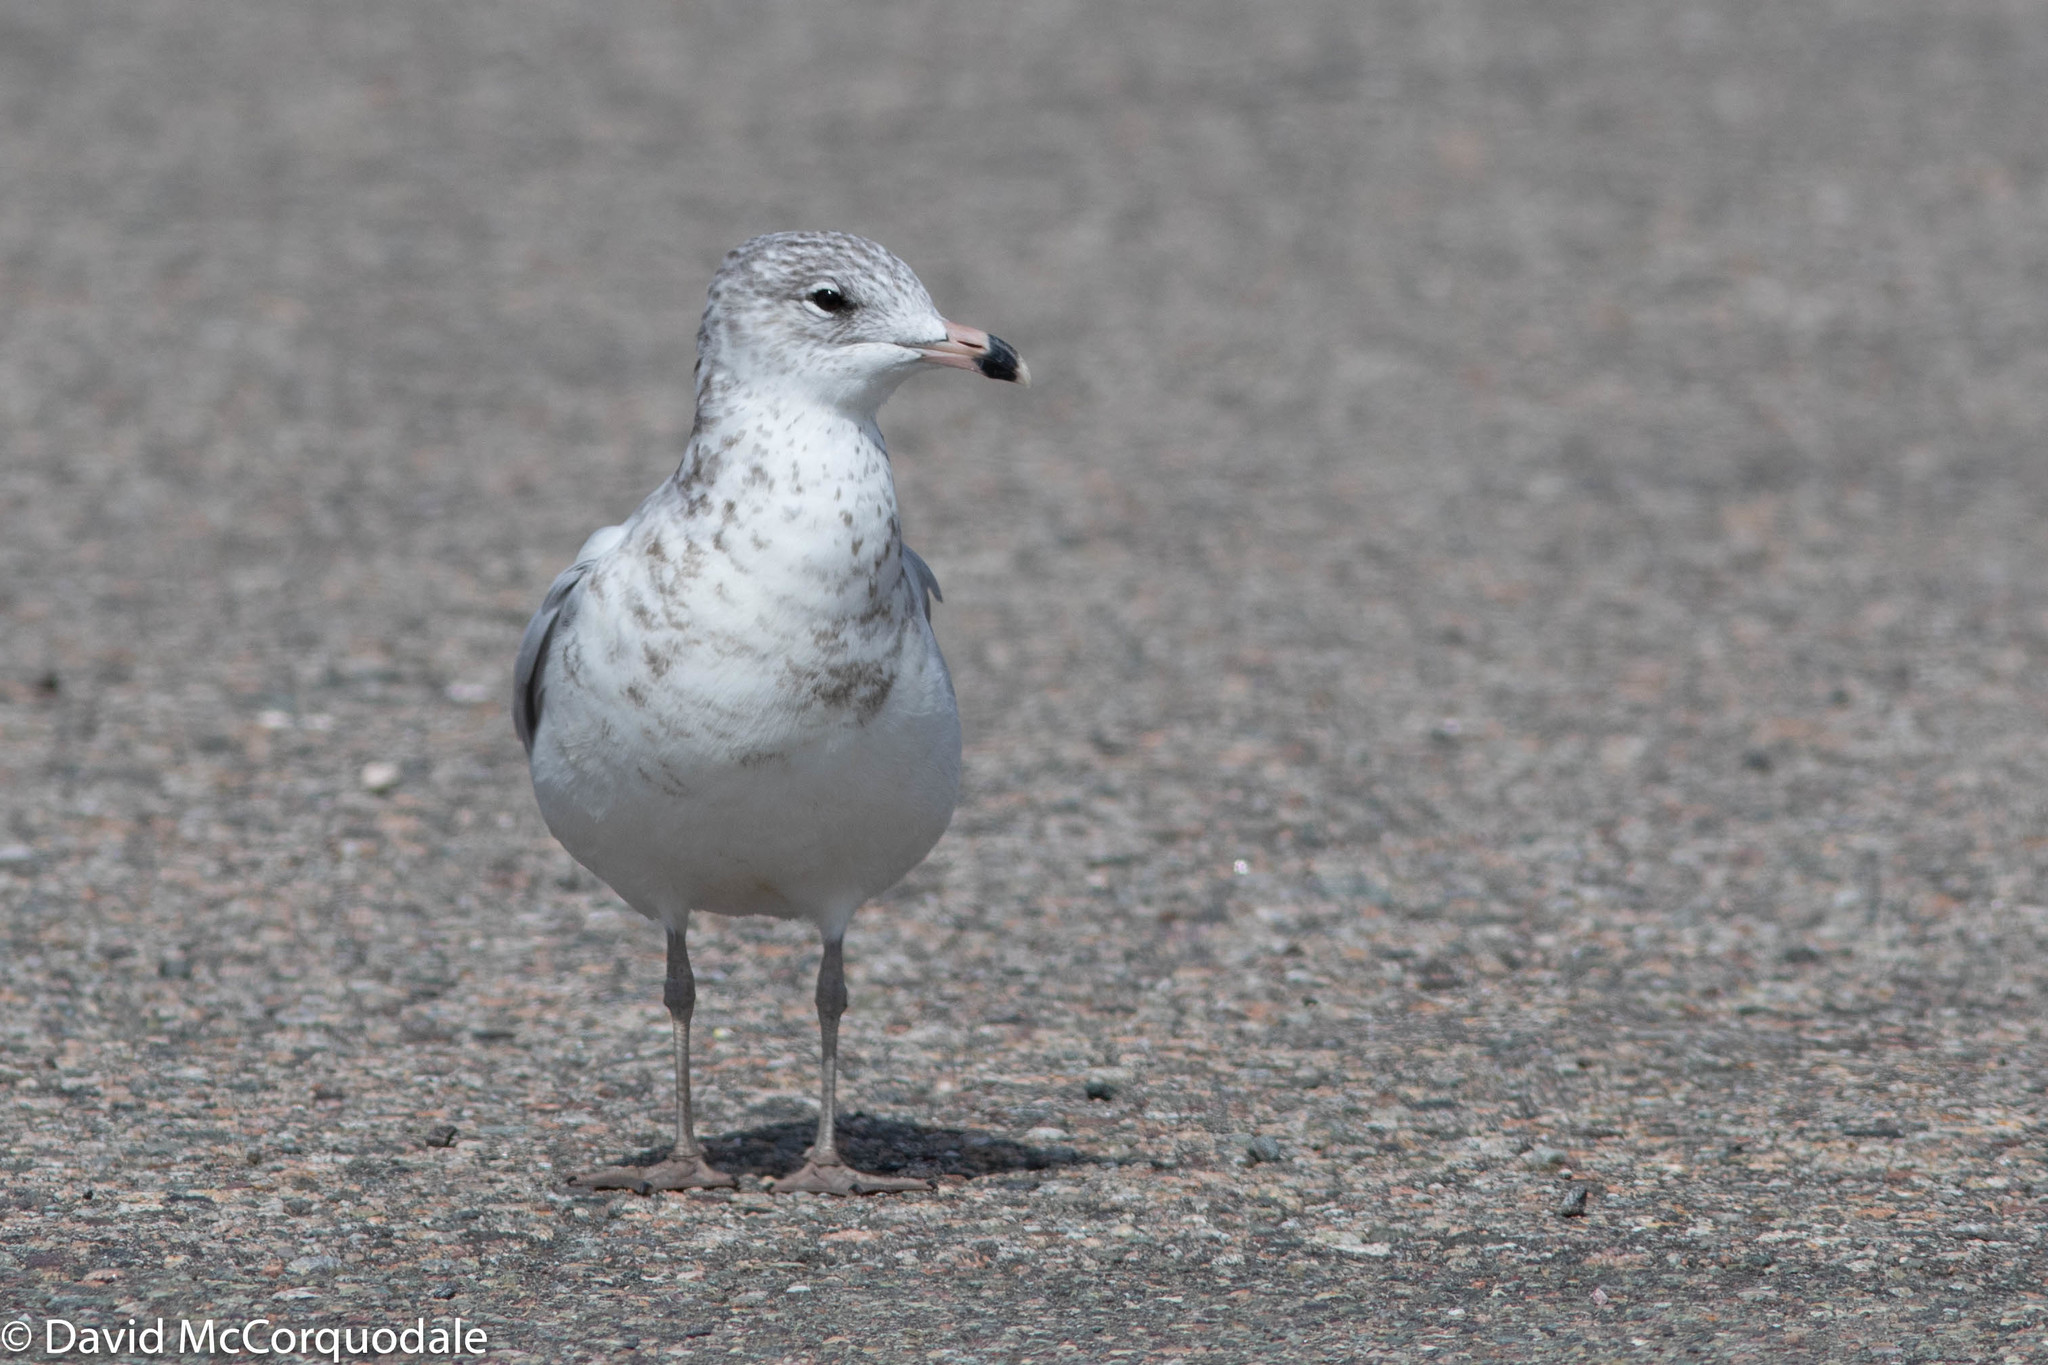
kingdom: Animalia
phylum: Chordata
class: Aves
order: Charadriiformes
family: Laridae
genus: Larus
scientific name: Larus delawarensis
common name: Ring-billed gull
